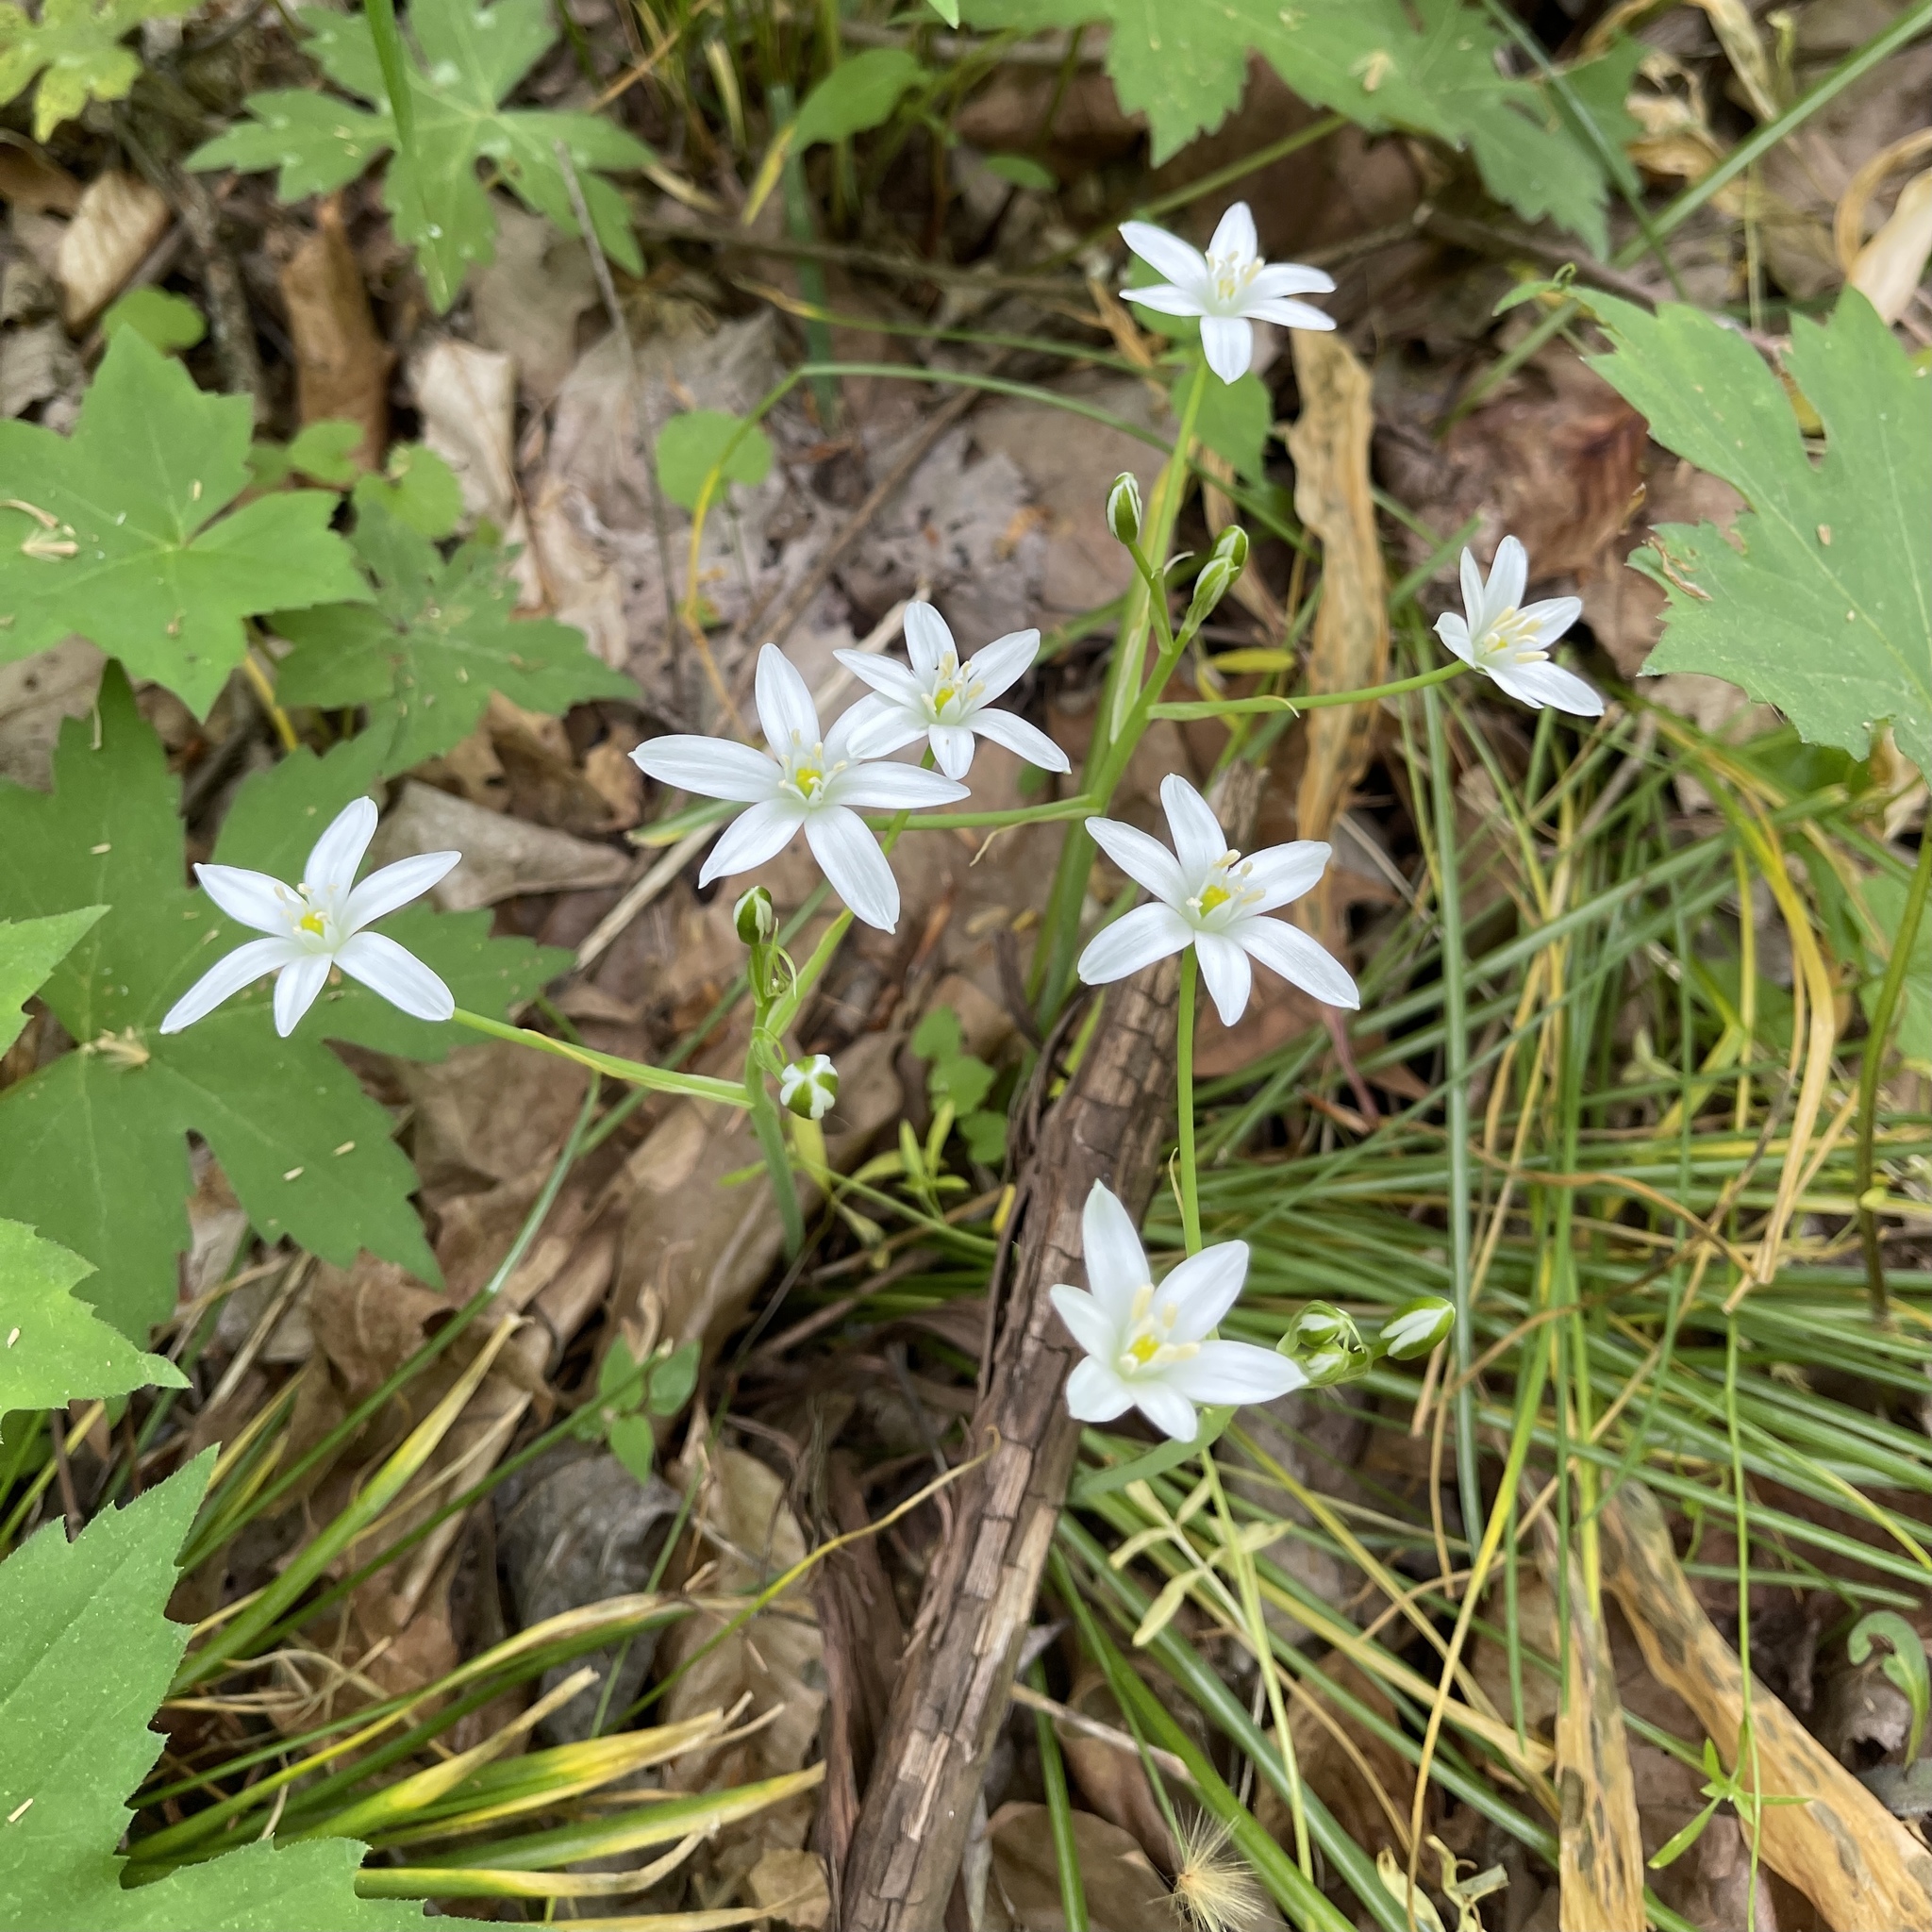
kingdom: Plantae
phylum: Tracheophyta
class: Liliopsida
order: Asparagales
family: Asparagaceae
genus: Ornithogalum
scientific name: Ornithogalum umbellatum
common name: Garden star-of-bethlehem
